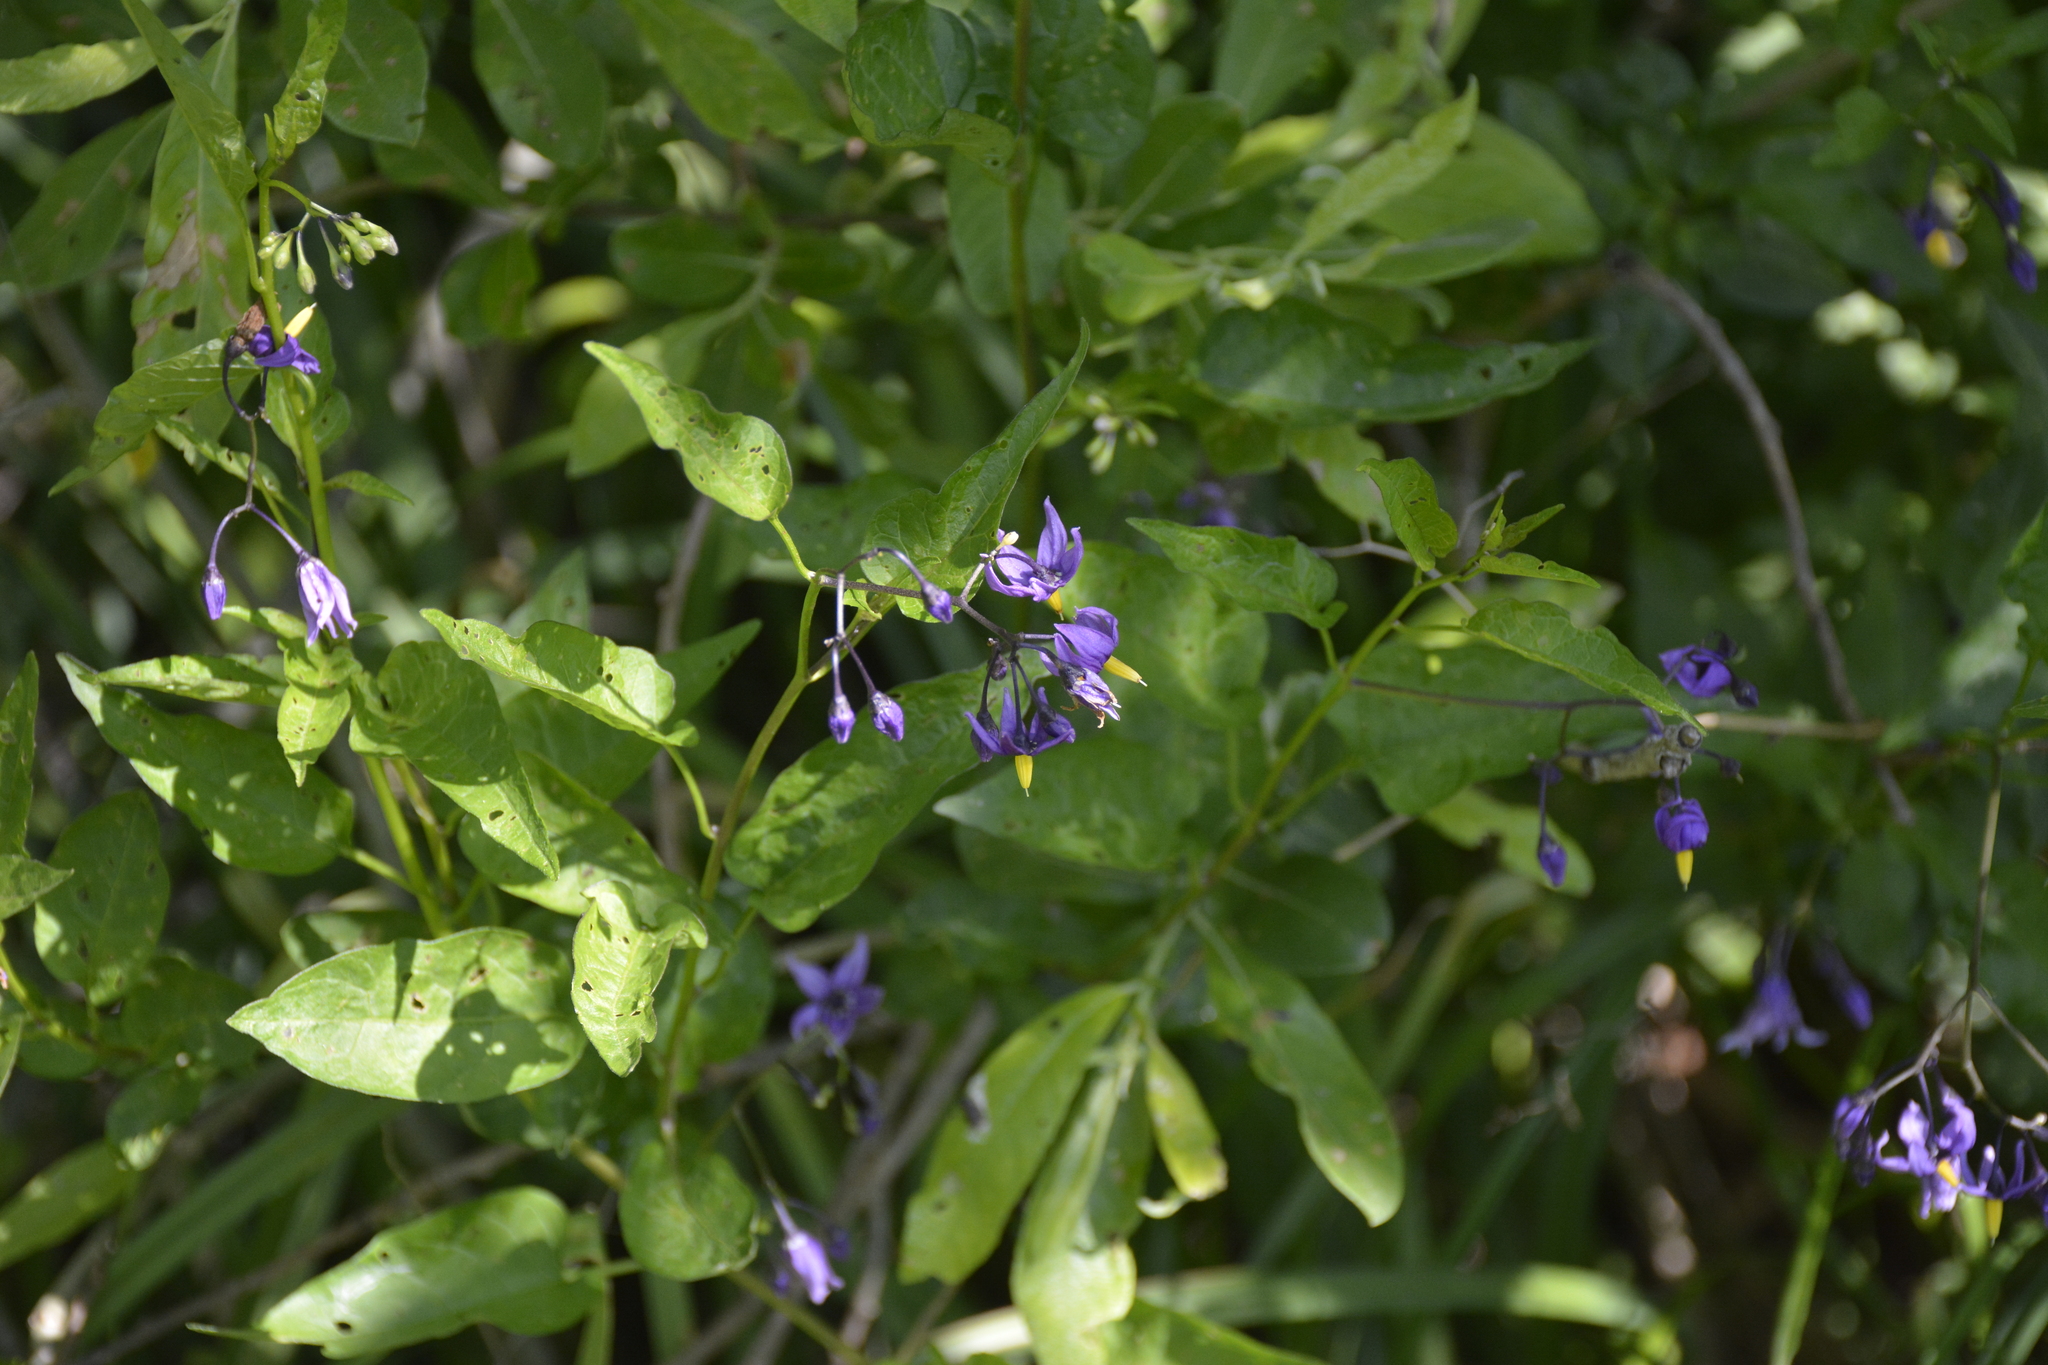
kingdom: Plantae
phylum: Tracheophyta
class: Magnoliopsida
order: Solanales
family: Solanaceae
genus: Solanum
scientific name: Solanum dulcamara
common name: Climbing nightshade
